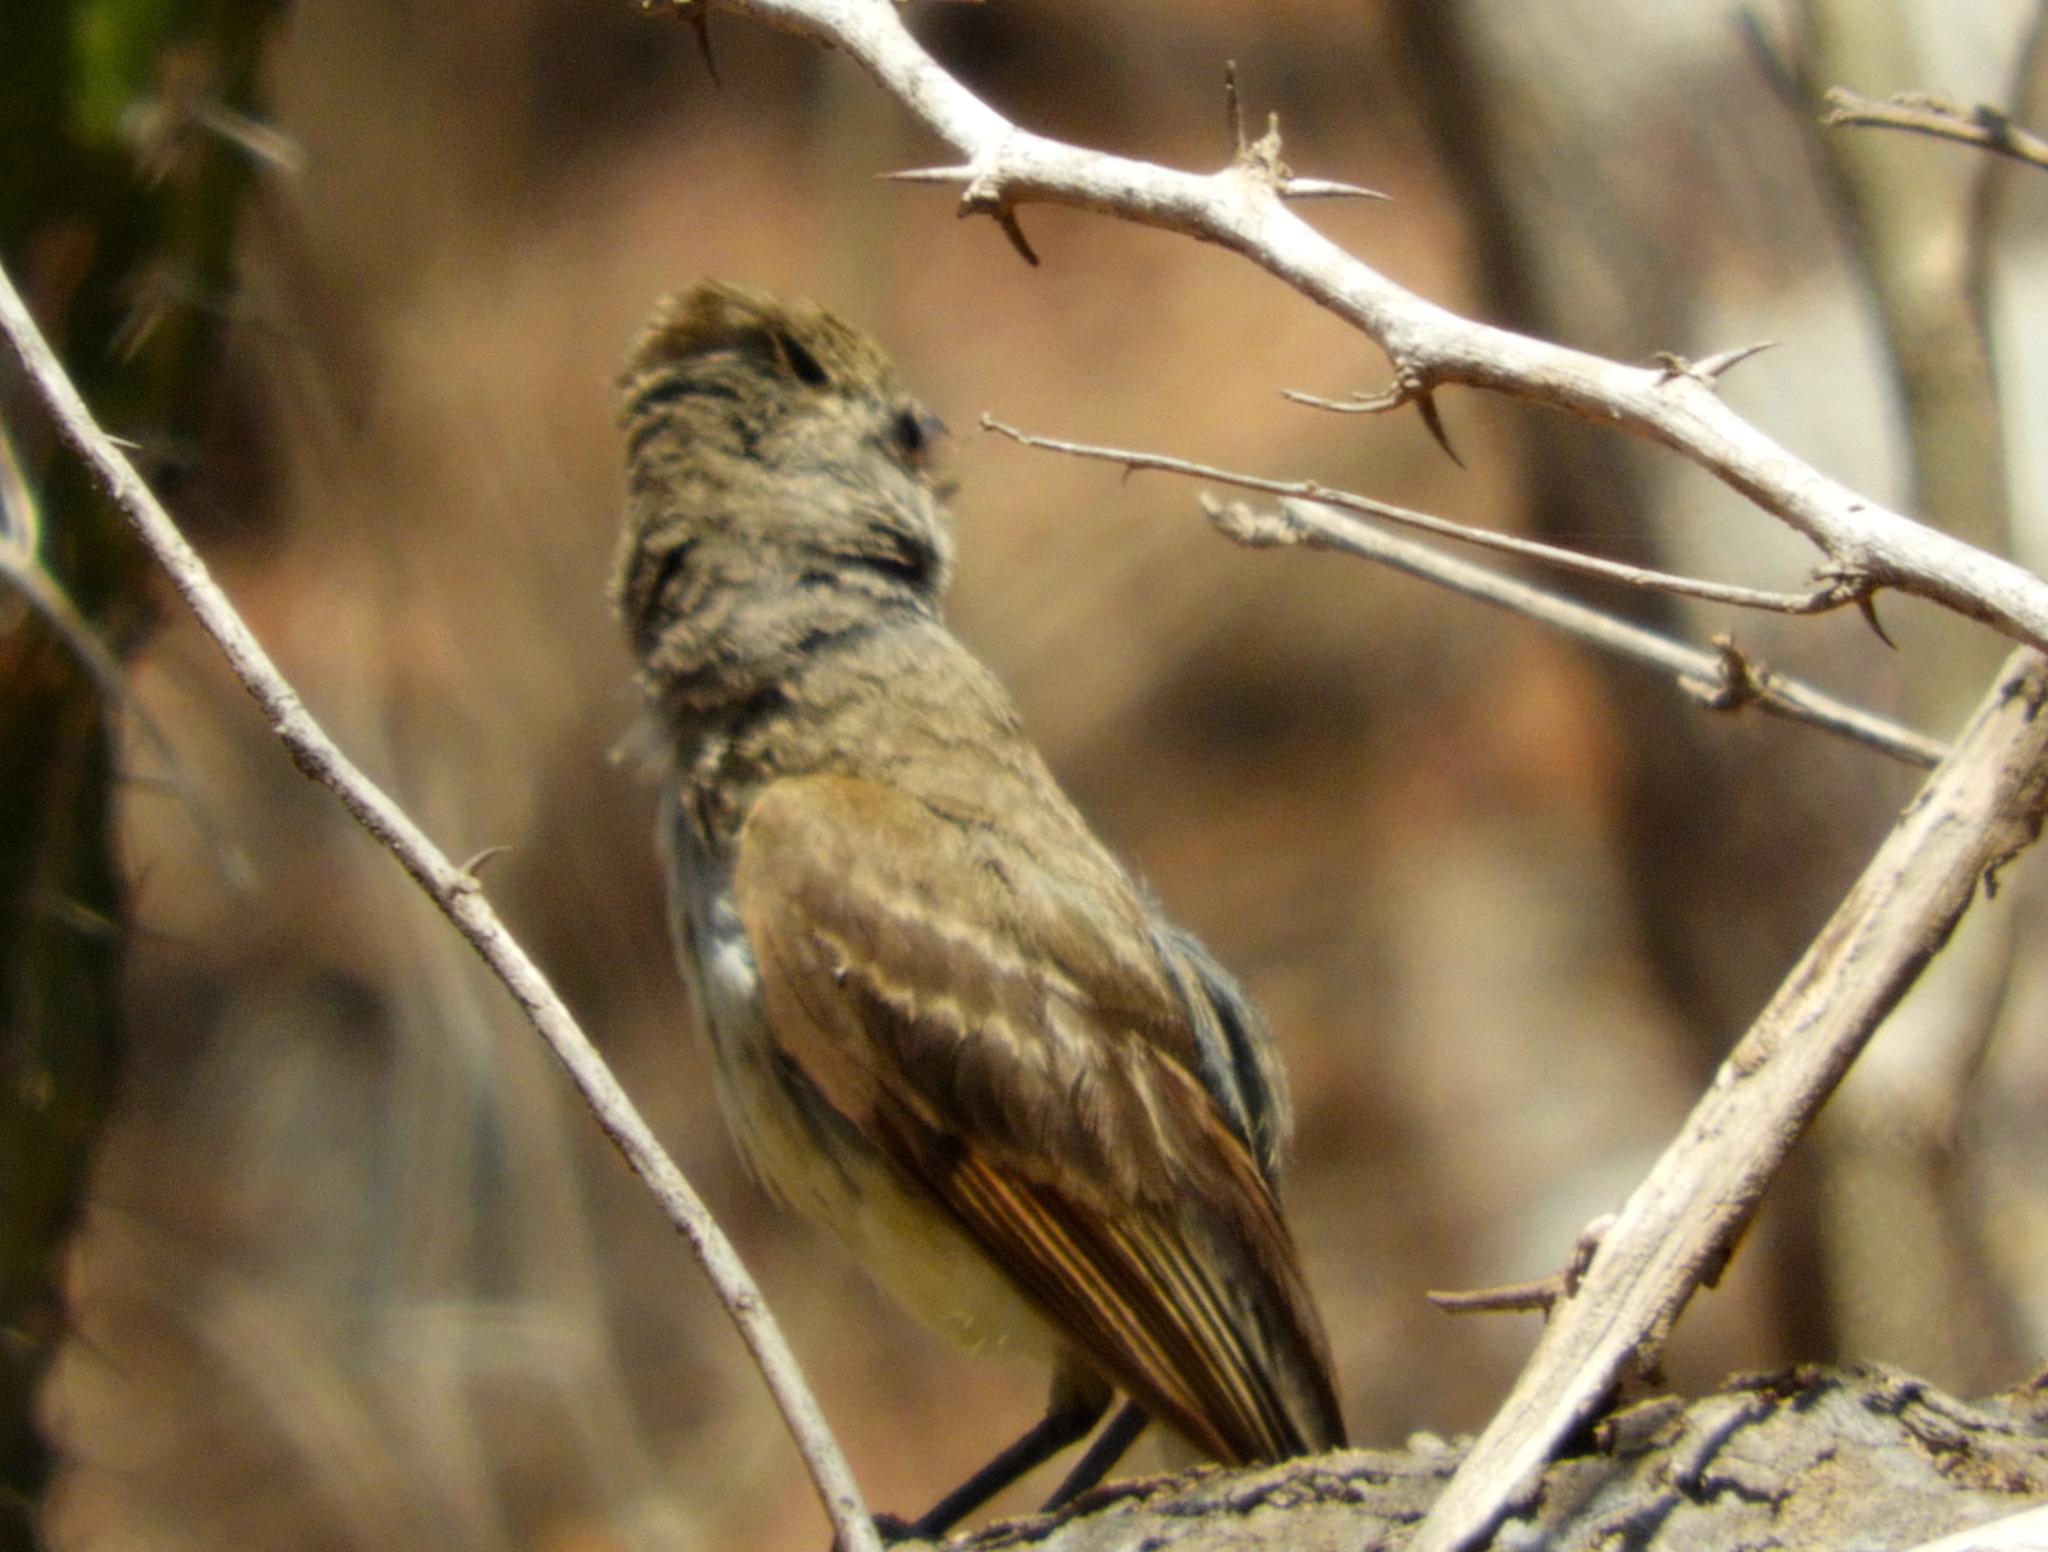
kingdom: Animalia
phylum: Chordata
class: Aves
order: Passeriformes
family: Tyrannidae
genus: Myiarchus
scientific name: Myiarchus
